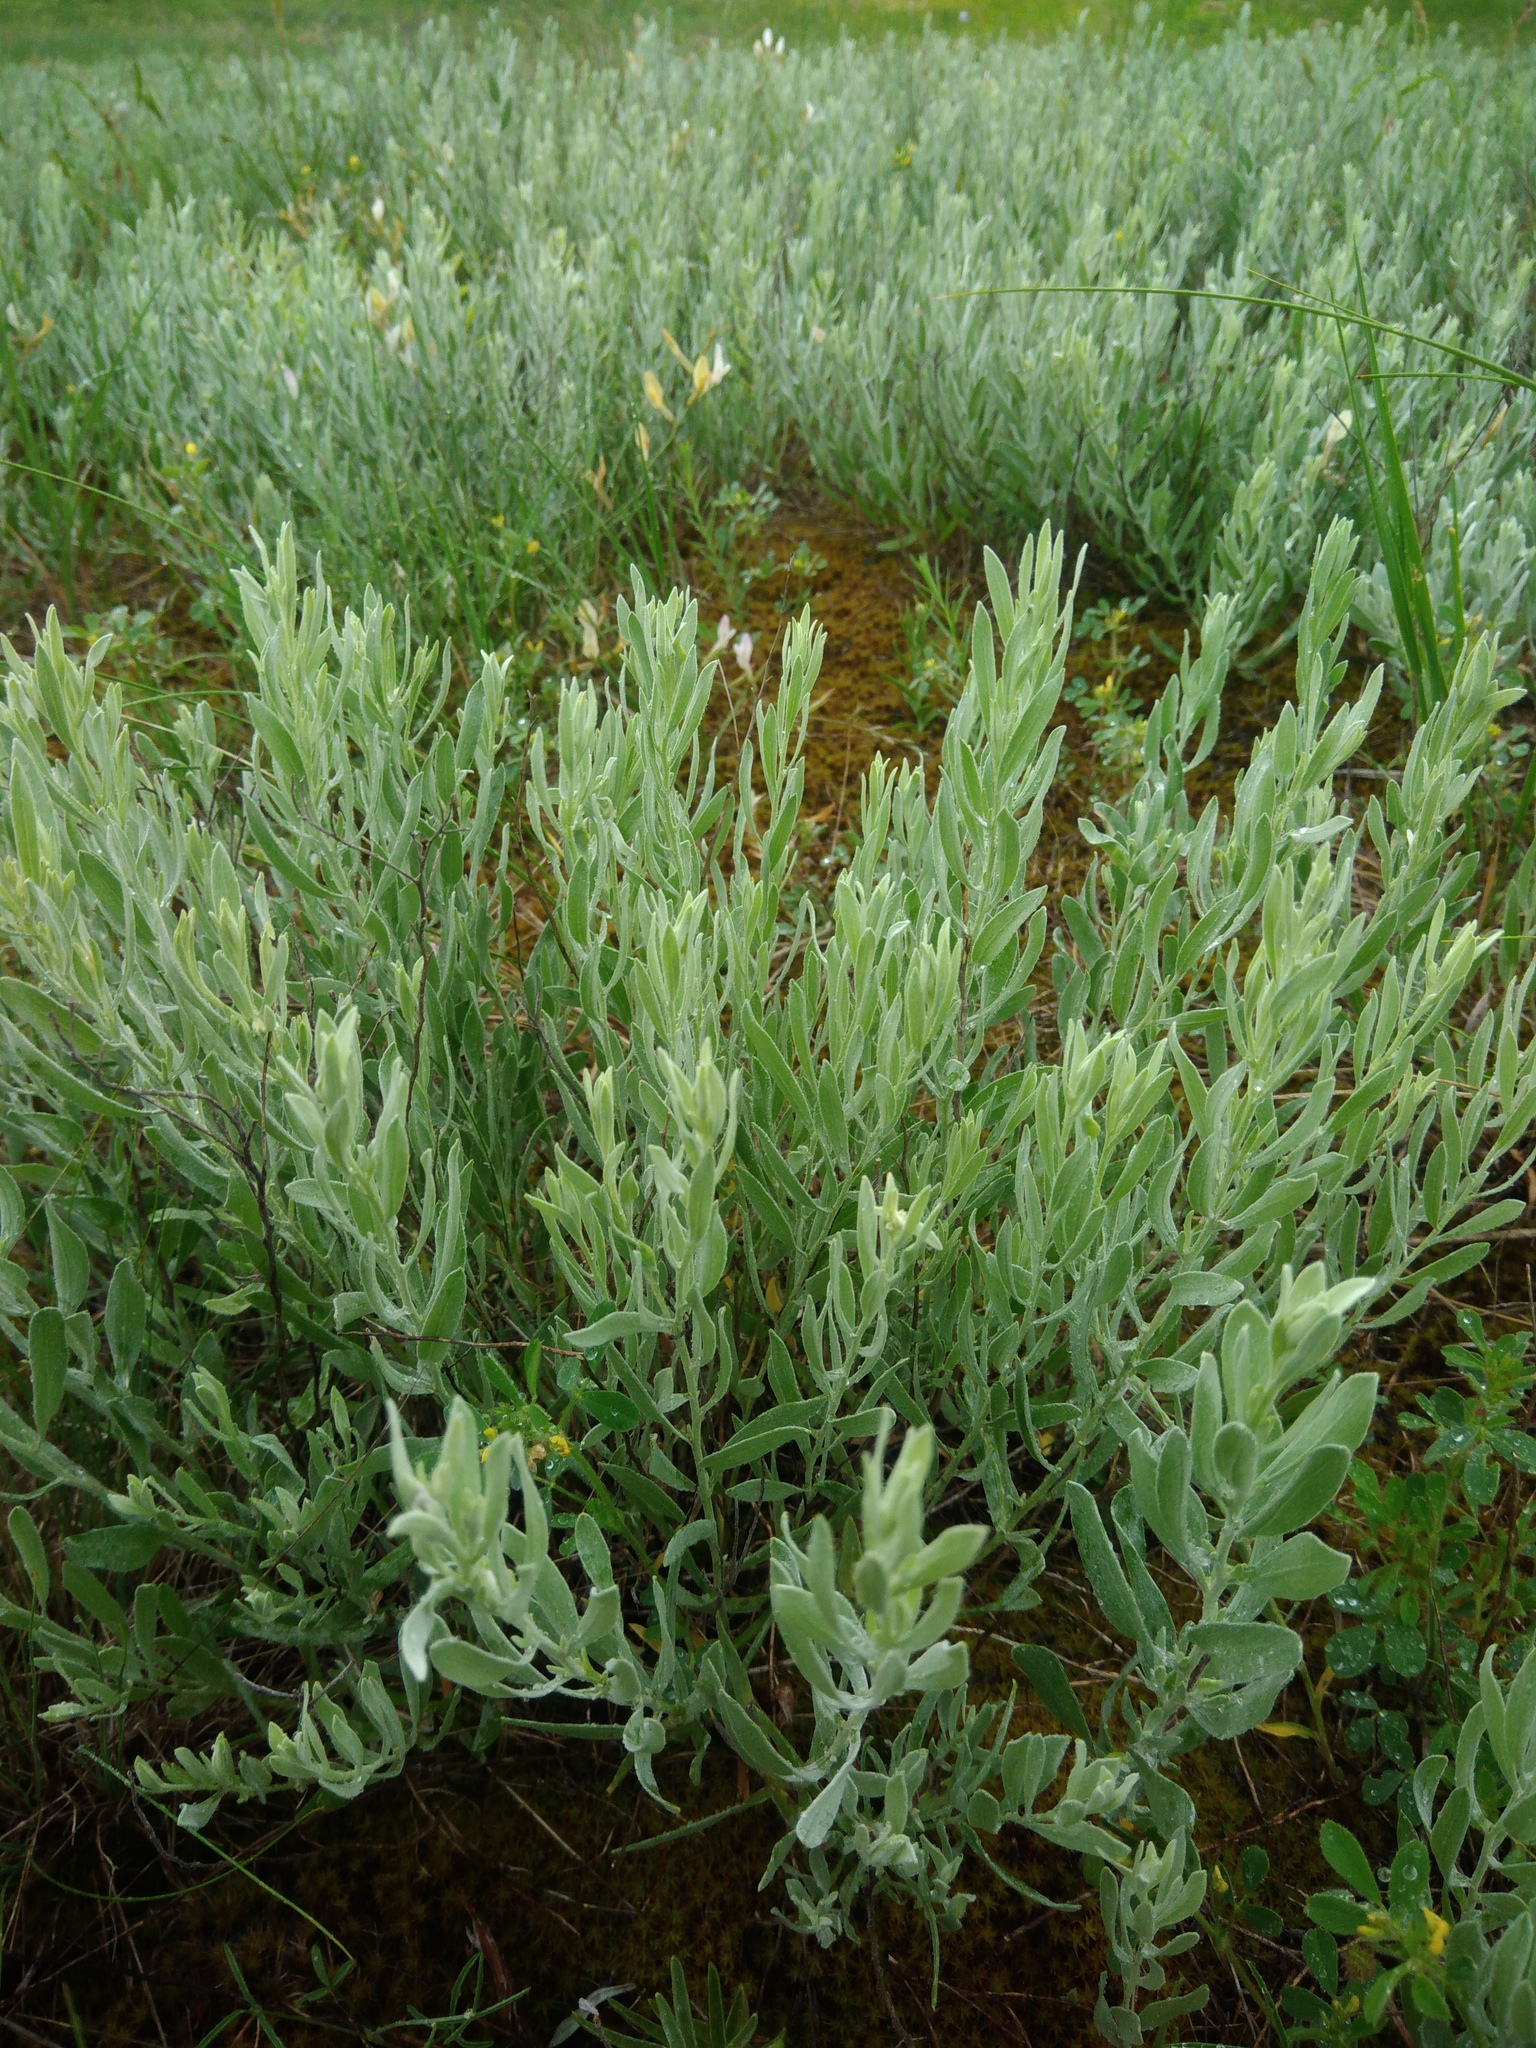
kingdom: Plantae
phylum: Tracheophyta
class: Magnoliopsida
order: Asterales
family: Asteraceae
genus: Galatella
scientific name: Galatella villosa
